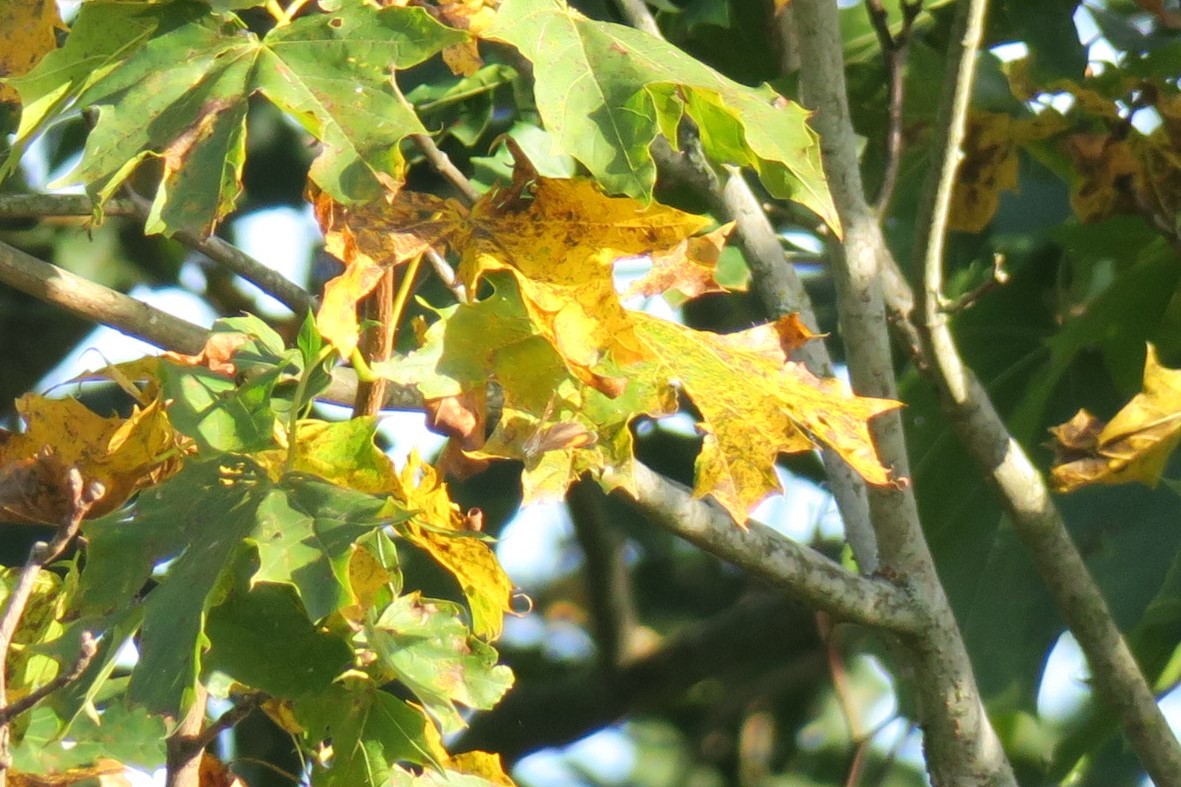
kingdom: Animalia
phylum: Arthropoda
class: Insecta
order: Lepidoptera
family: Lycaenidae
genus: Thecla
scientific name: Thecla betulae
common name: Brown hairstreak
